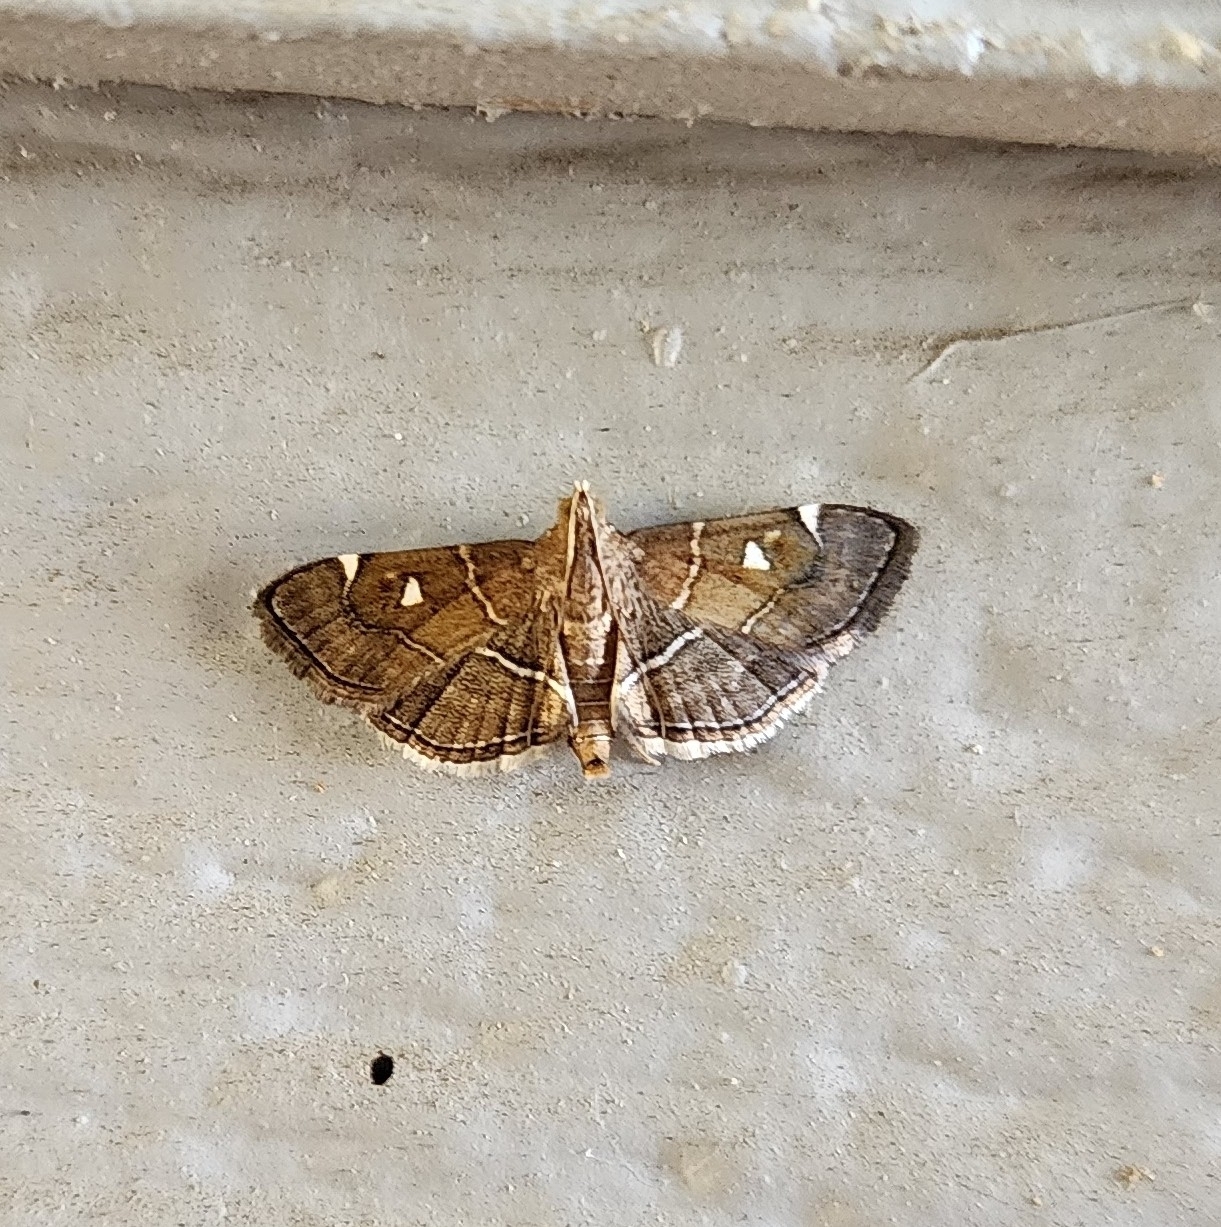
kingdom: Animalia
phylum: Arthropoda
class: Insecta
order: Lepidoptera
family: Crambidae
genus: Lamprosema
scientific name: Lamprosema victoriae
